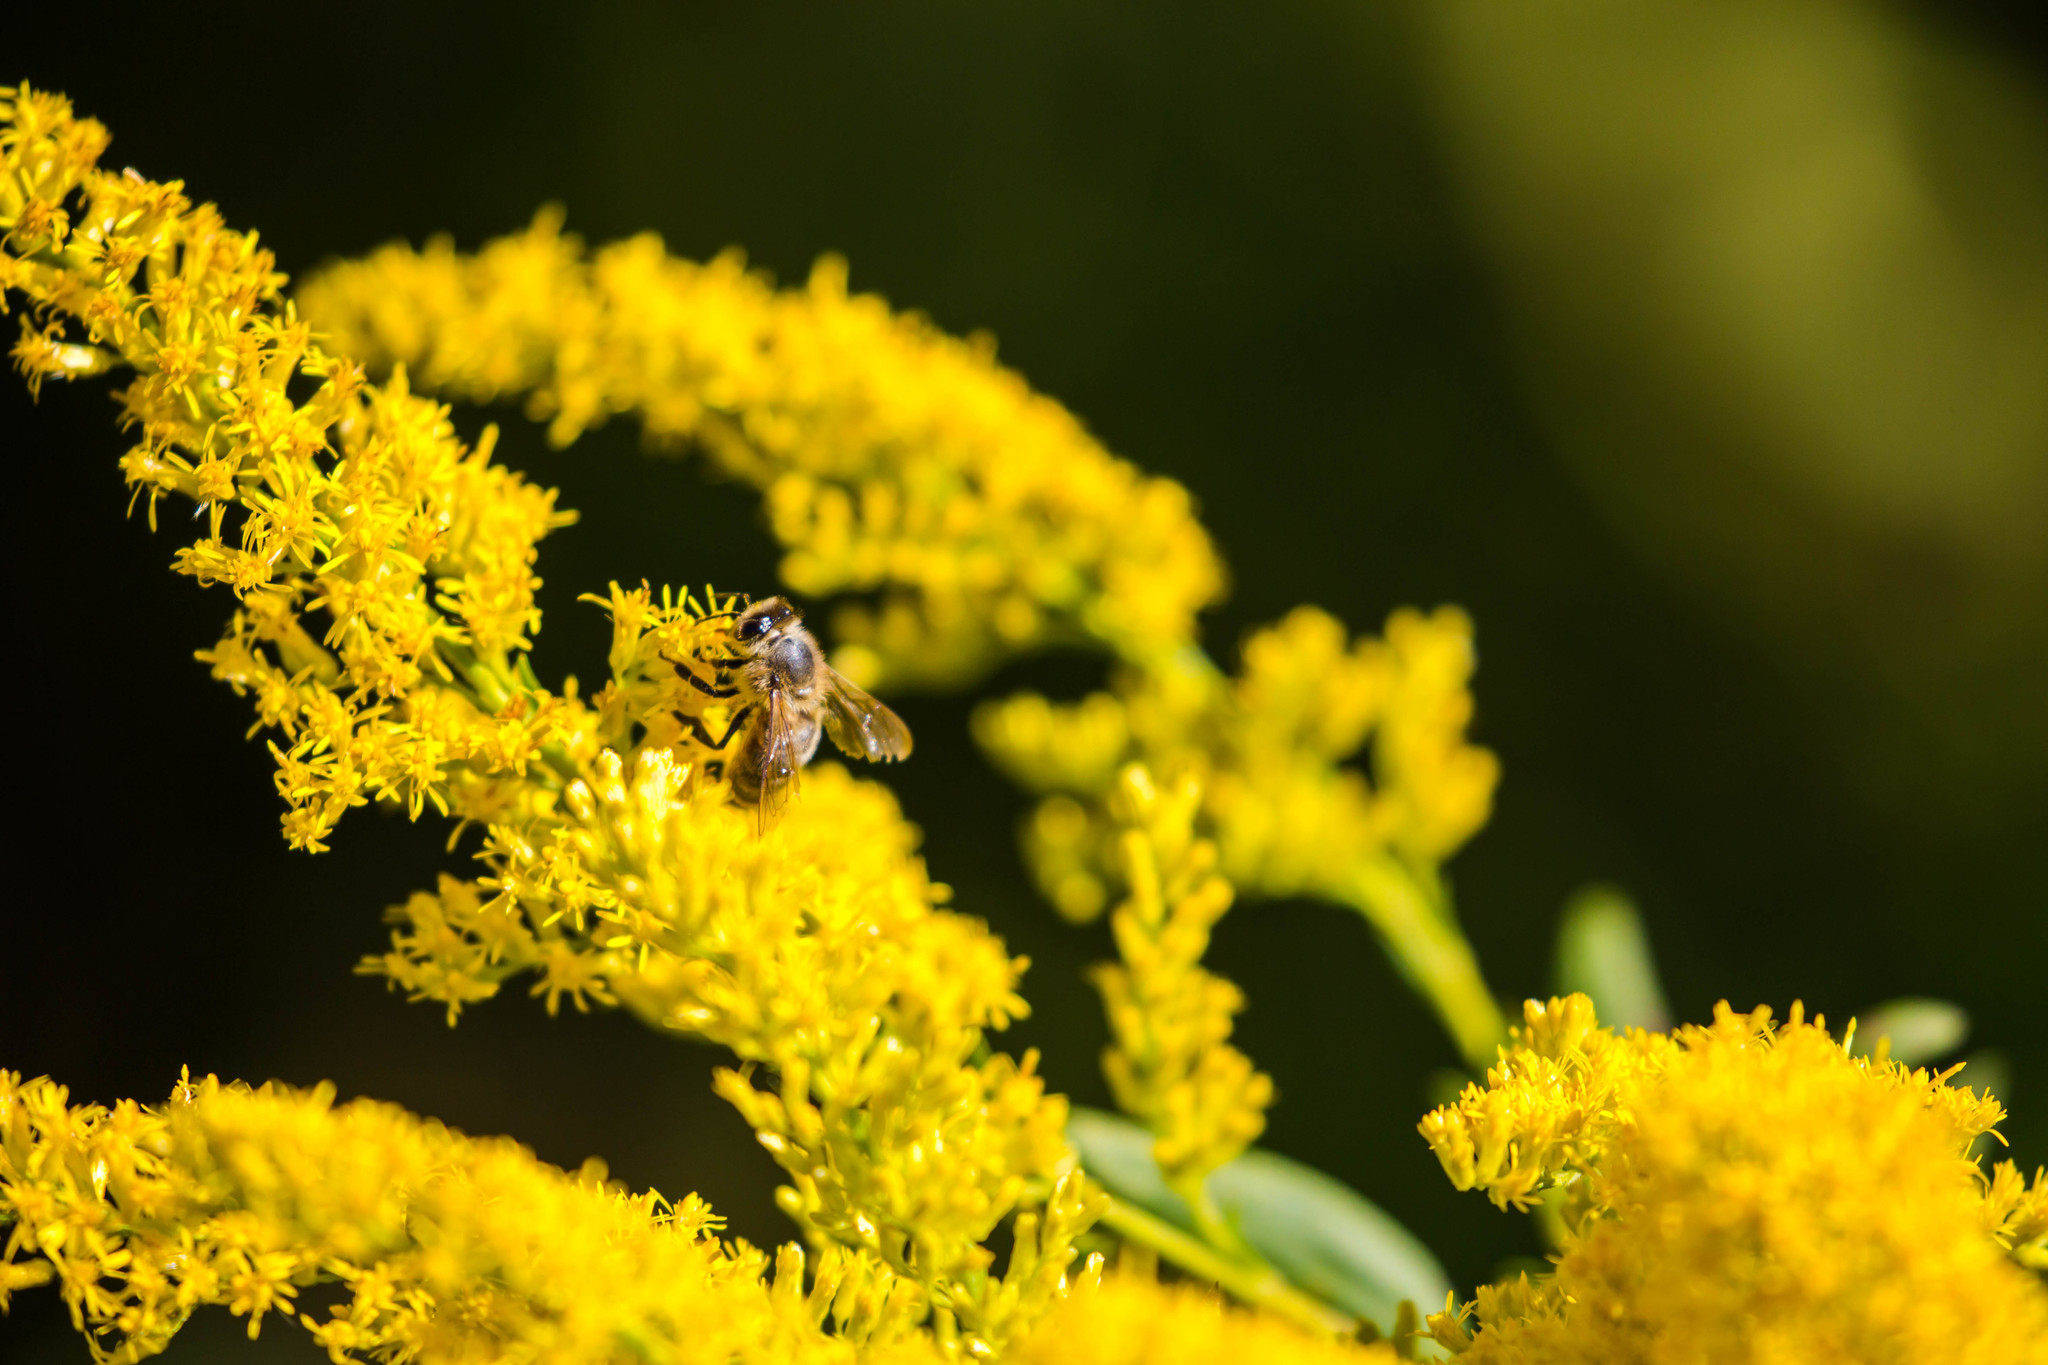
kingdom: Animalia
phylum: Arthropoda
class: Insecta
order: Hymenoptera
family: Apidae
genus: Apis
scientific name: Apis mellifera
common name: Honey bee
